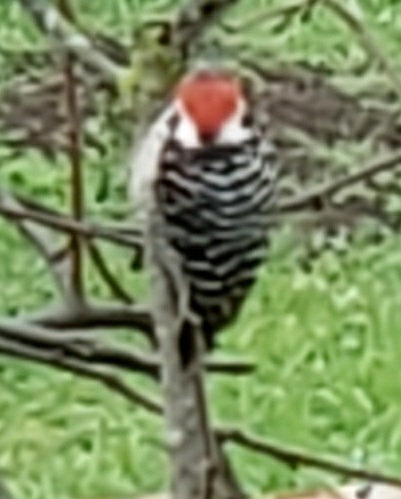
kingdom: Animalia
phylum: Chordata
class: Aves
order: Piciformes
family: Picidae
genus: Dryobates
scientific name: Dryobates nuttallii
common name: Nuttall's woodpecker
